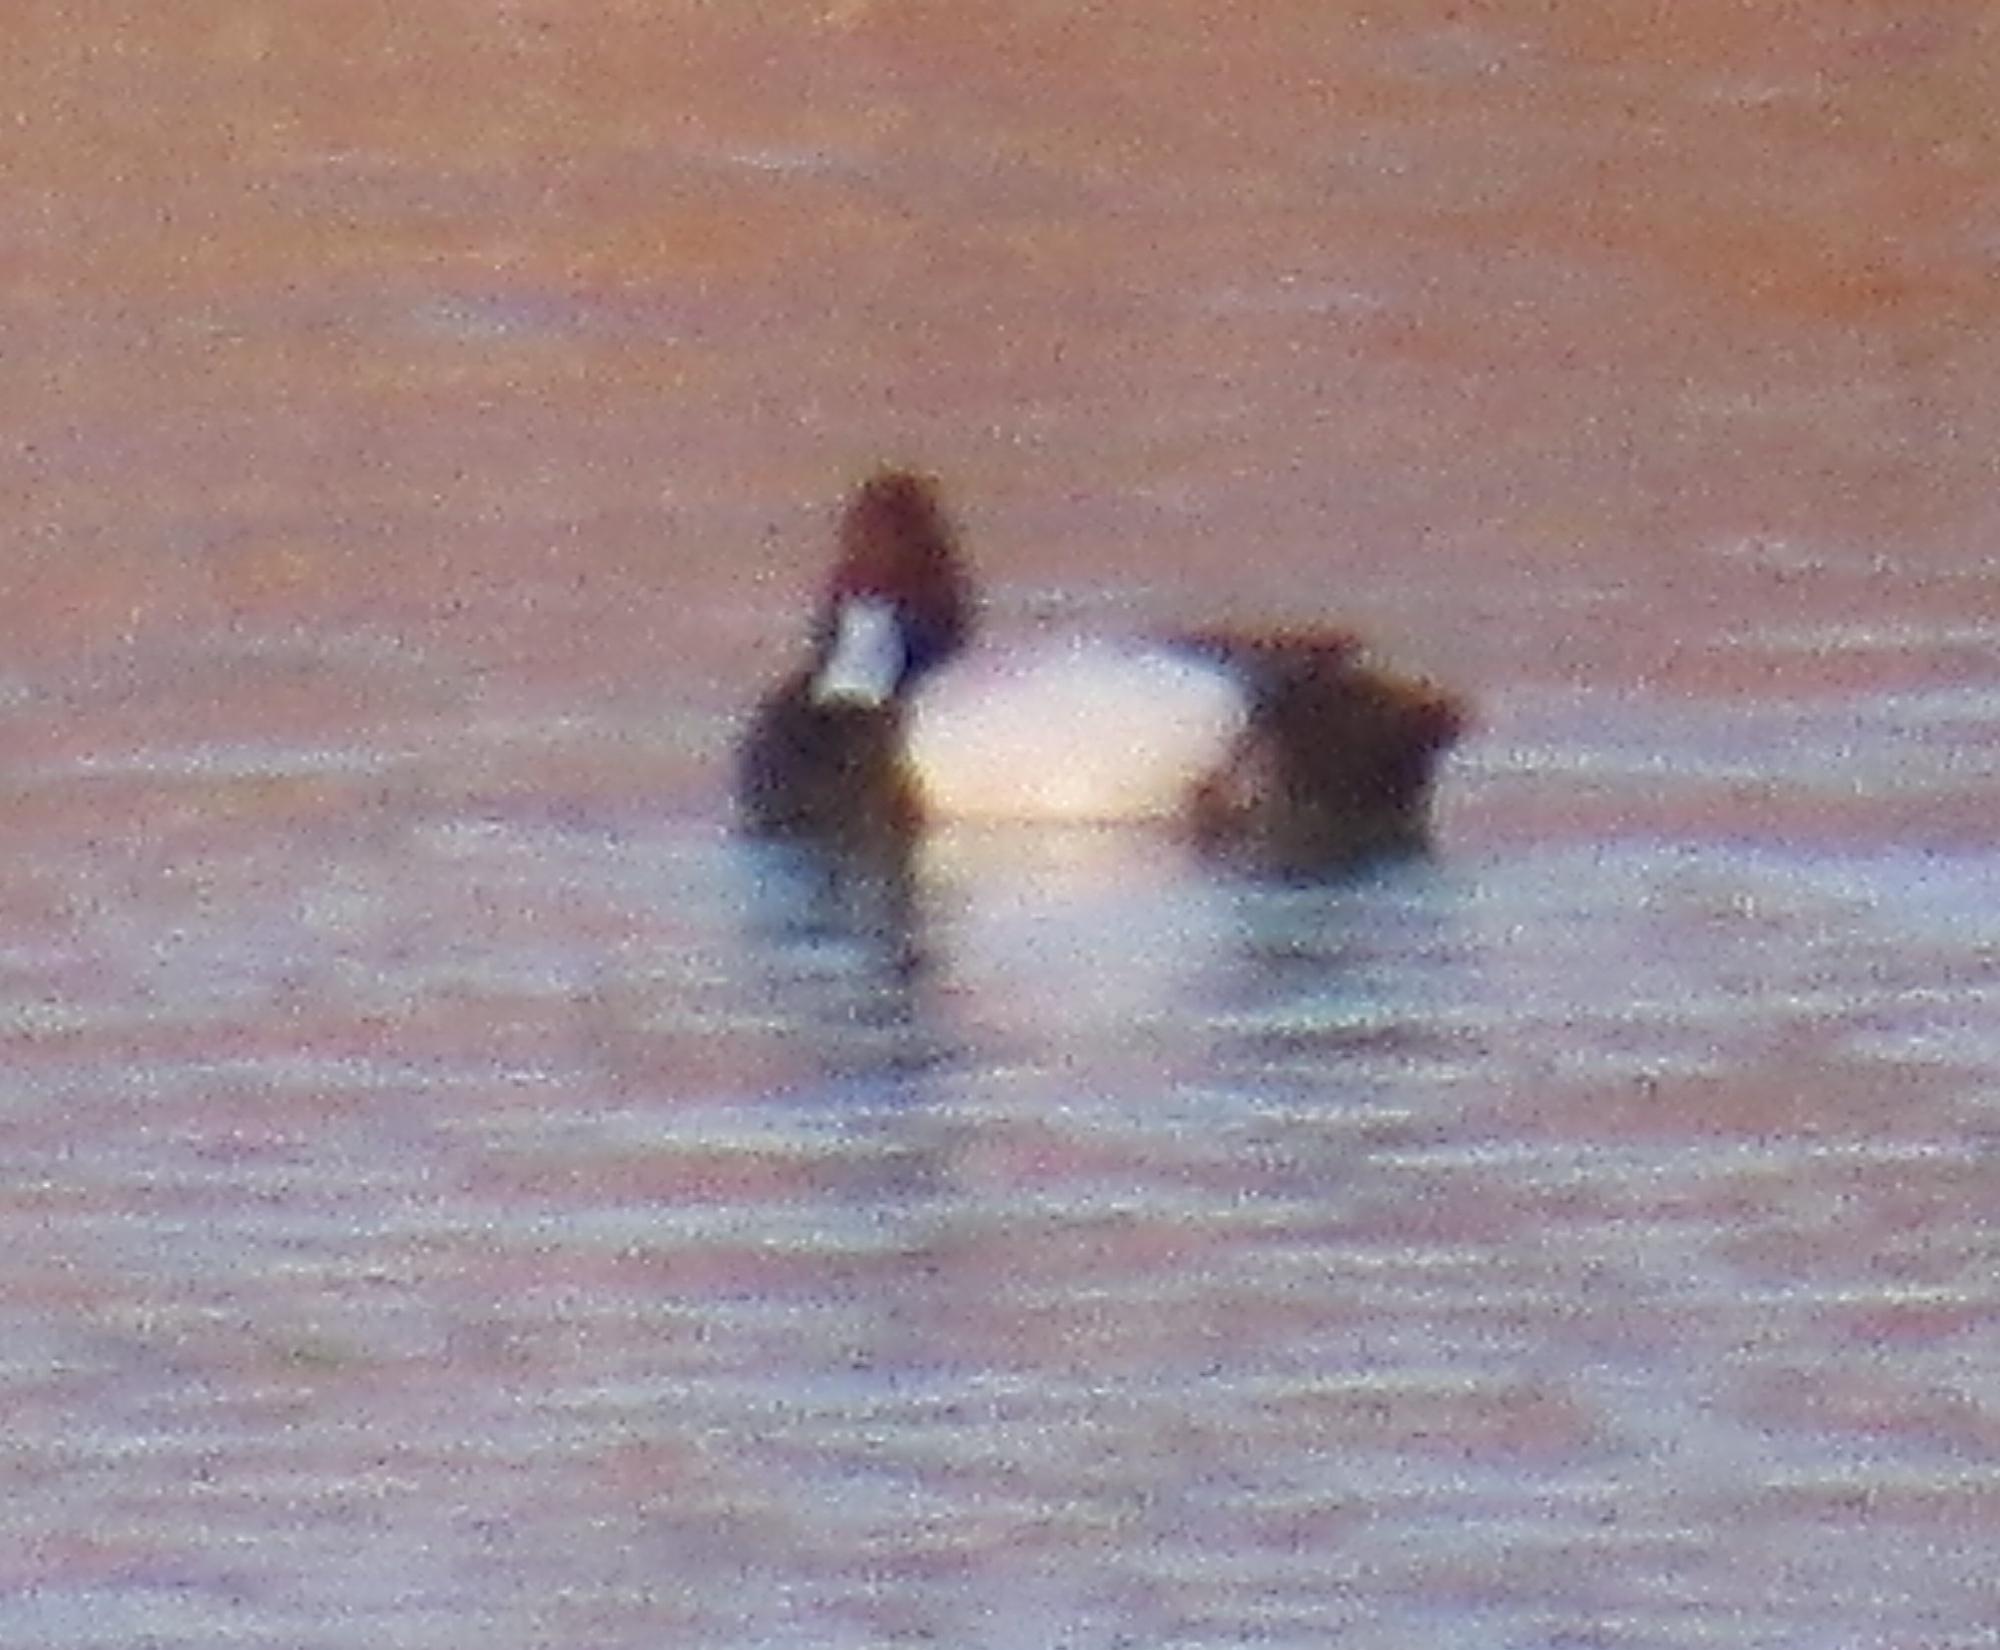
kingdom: Animalia
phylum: Chordata
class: Aves
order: Anseriformes
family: Anatidae
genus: Aythya
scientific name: Aythya
